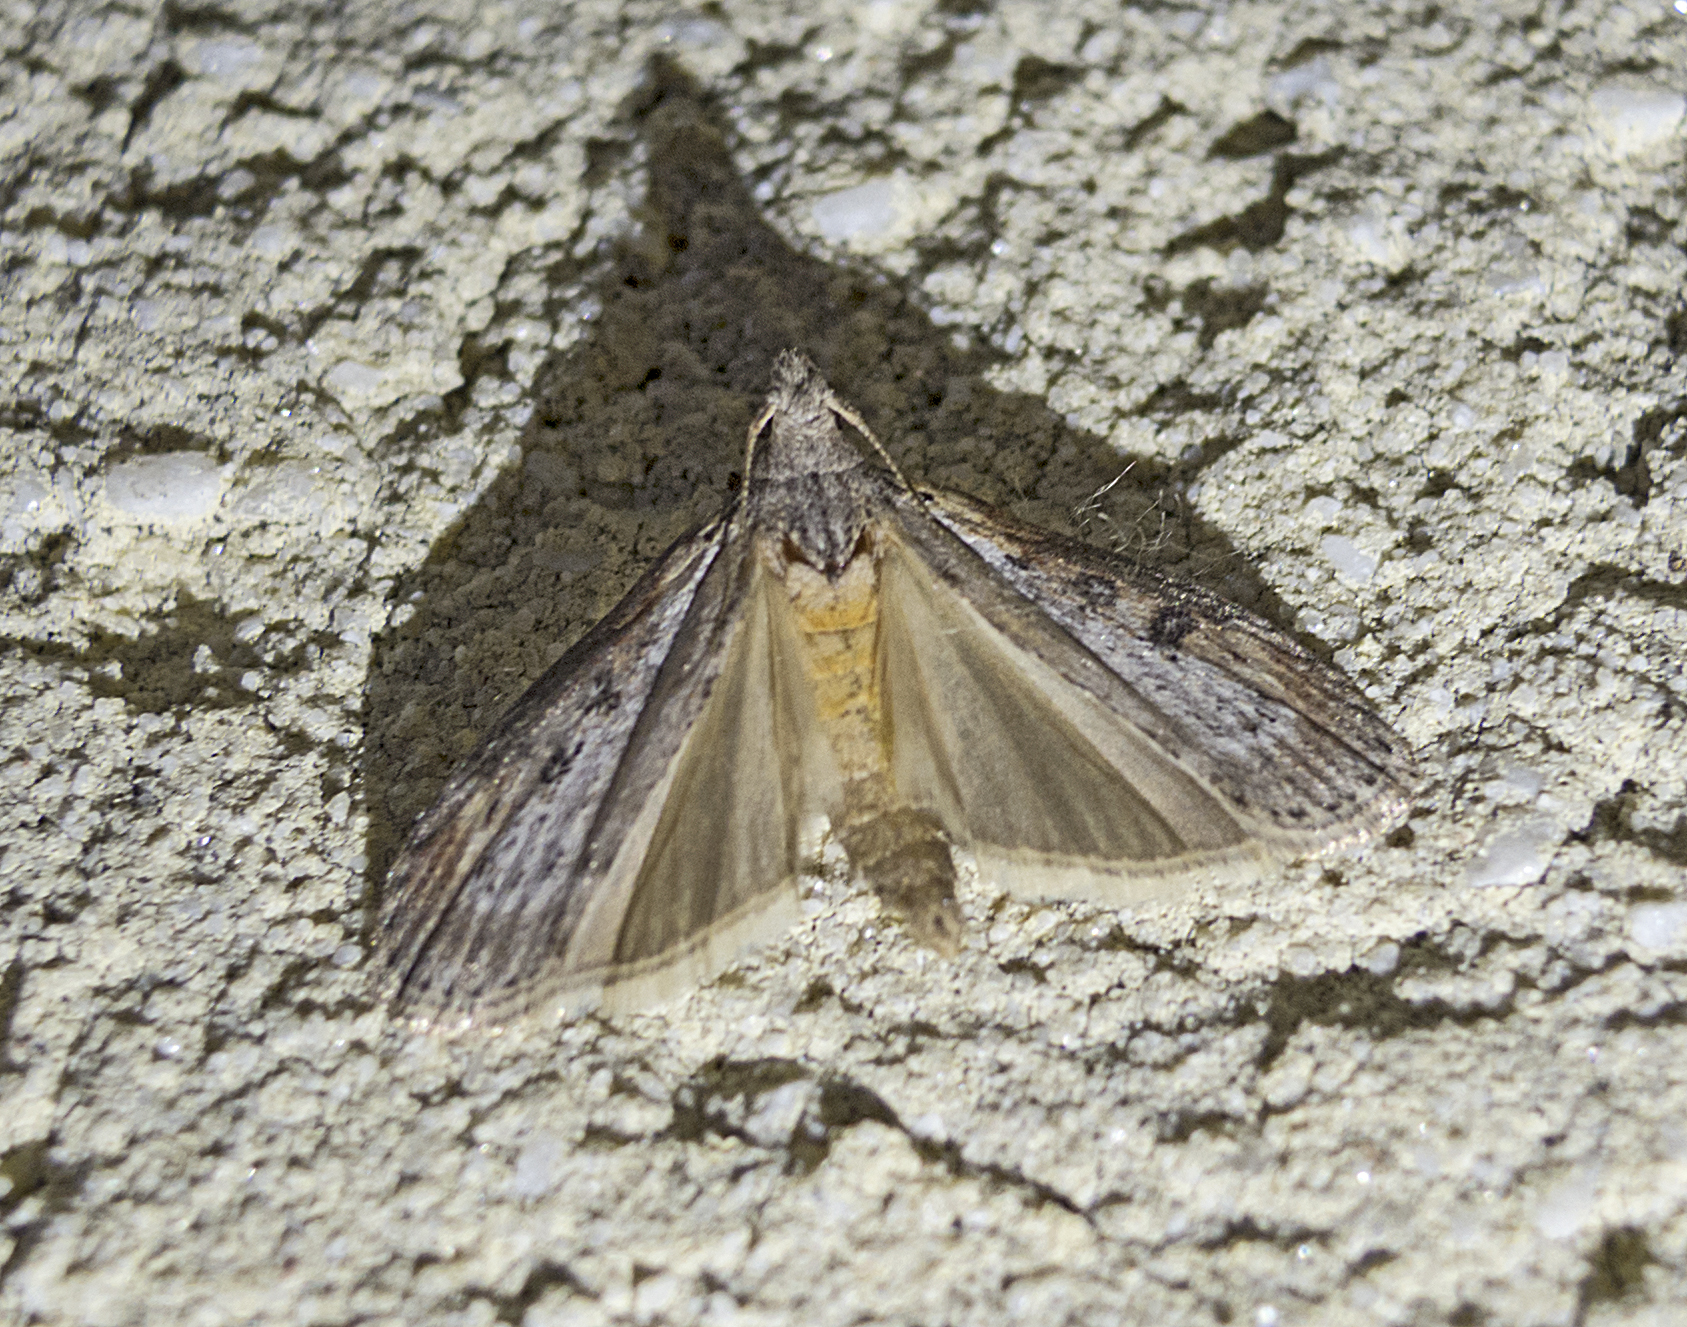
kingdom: Animalia
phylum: Arthropoda
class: Insecta
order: Lepidoptera
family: Pyralidae
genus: Lamoria
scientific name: Lamoria anella
